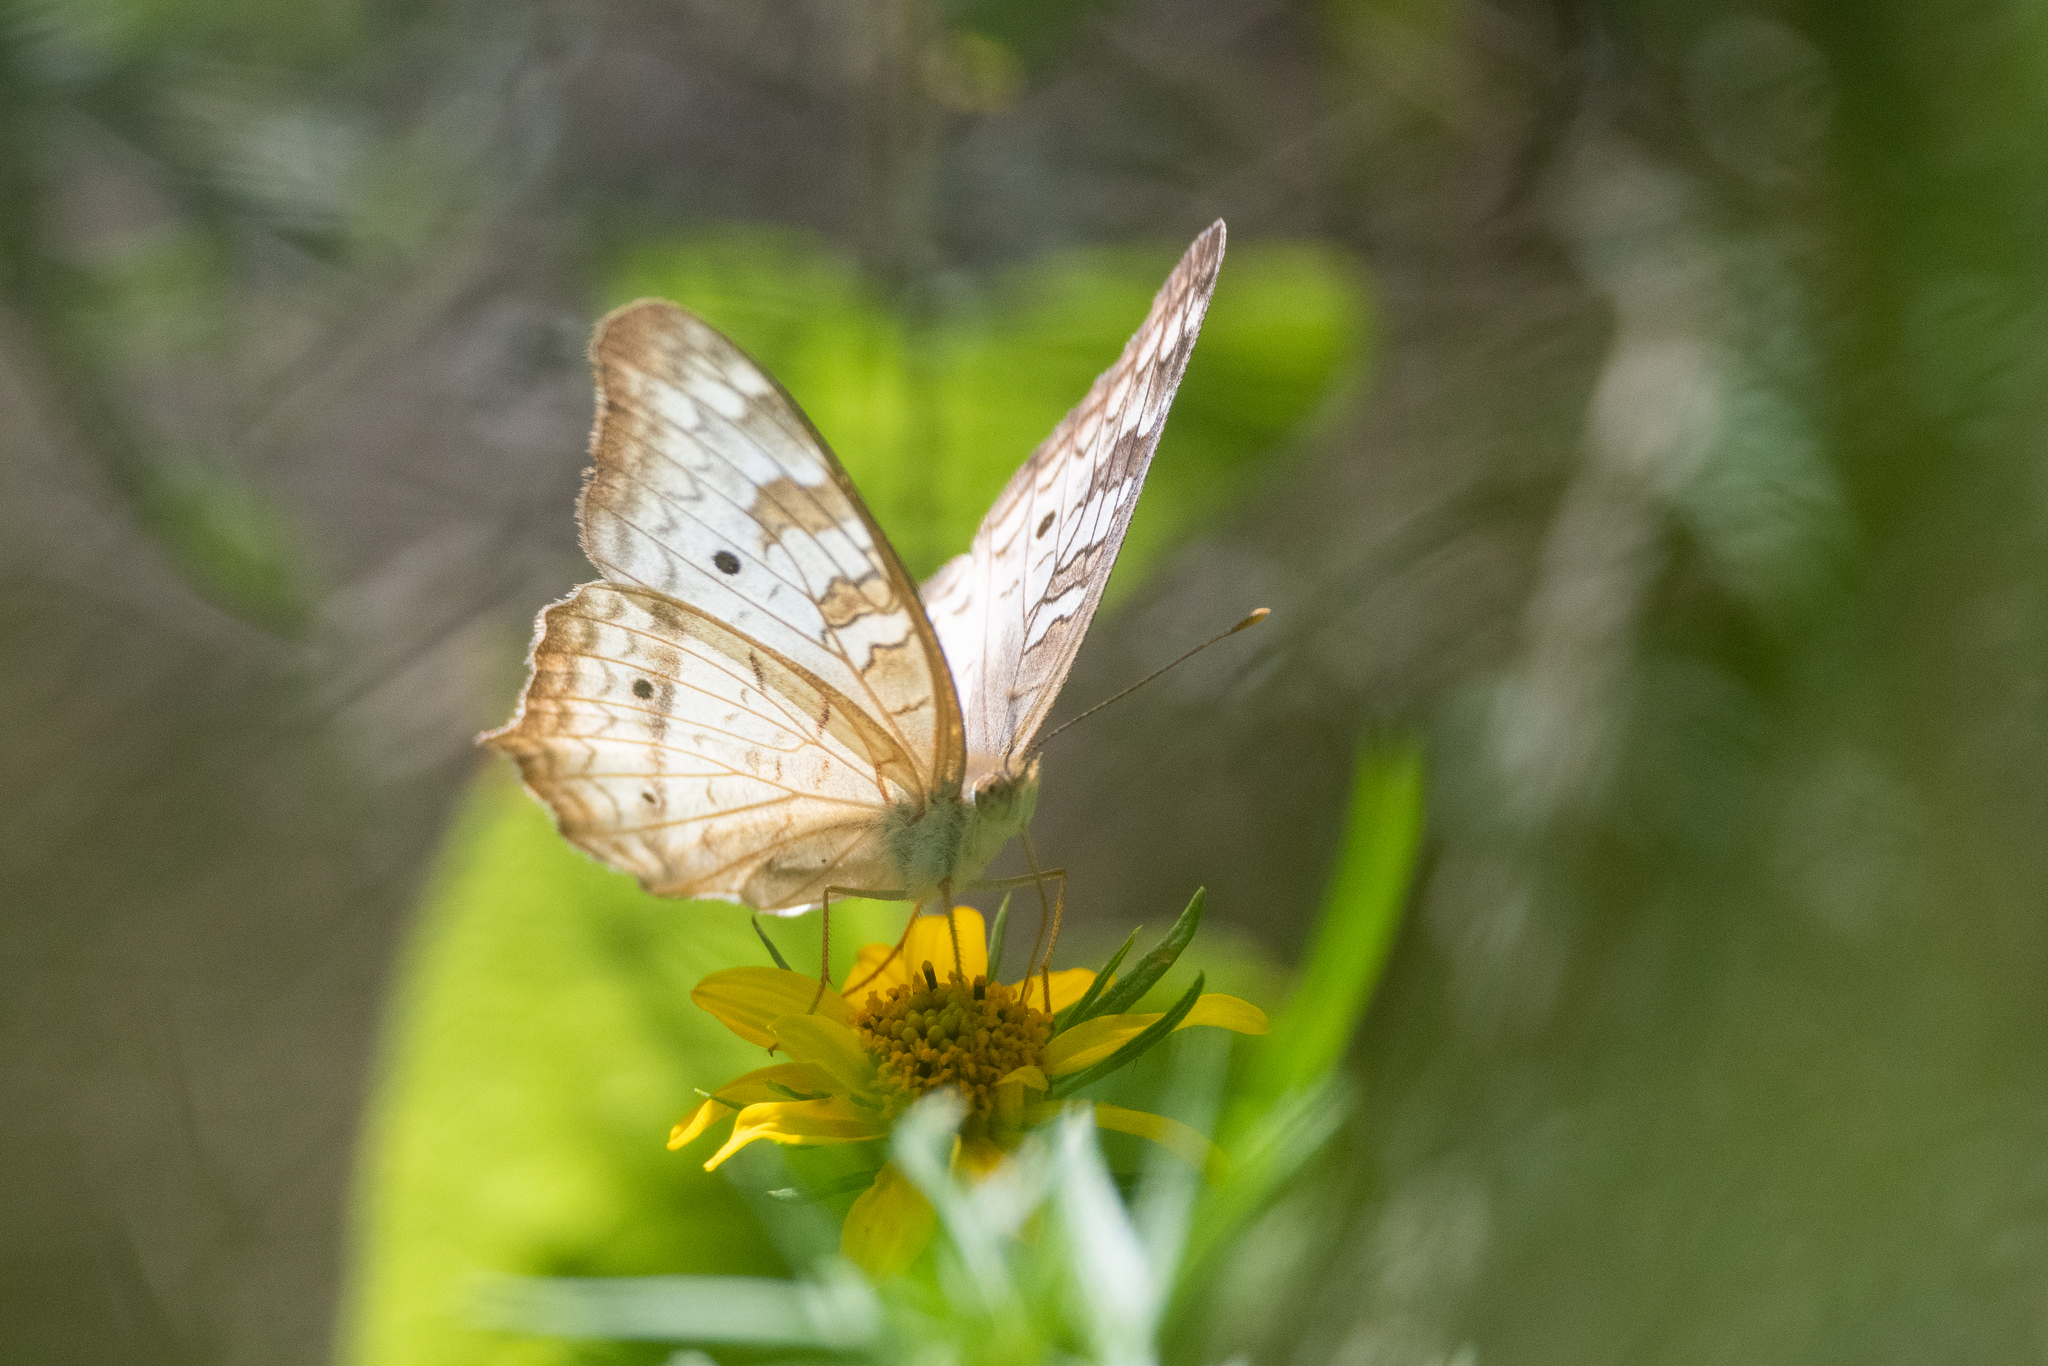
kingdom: Animalia
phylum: Arthropoda
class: Insecta
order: Lepidoptera
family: Nymphalidae
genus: Anartia
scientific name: Anartia jatrophae
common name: White peacock
